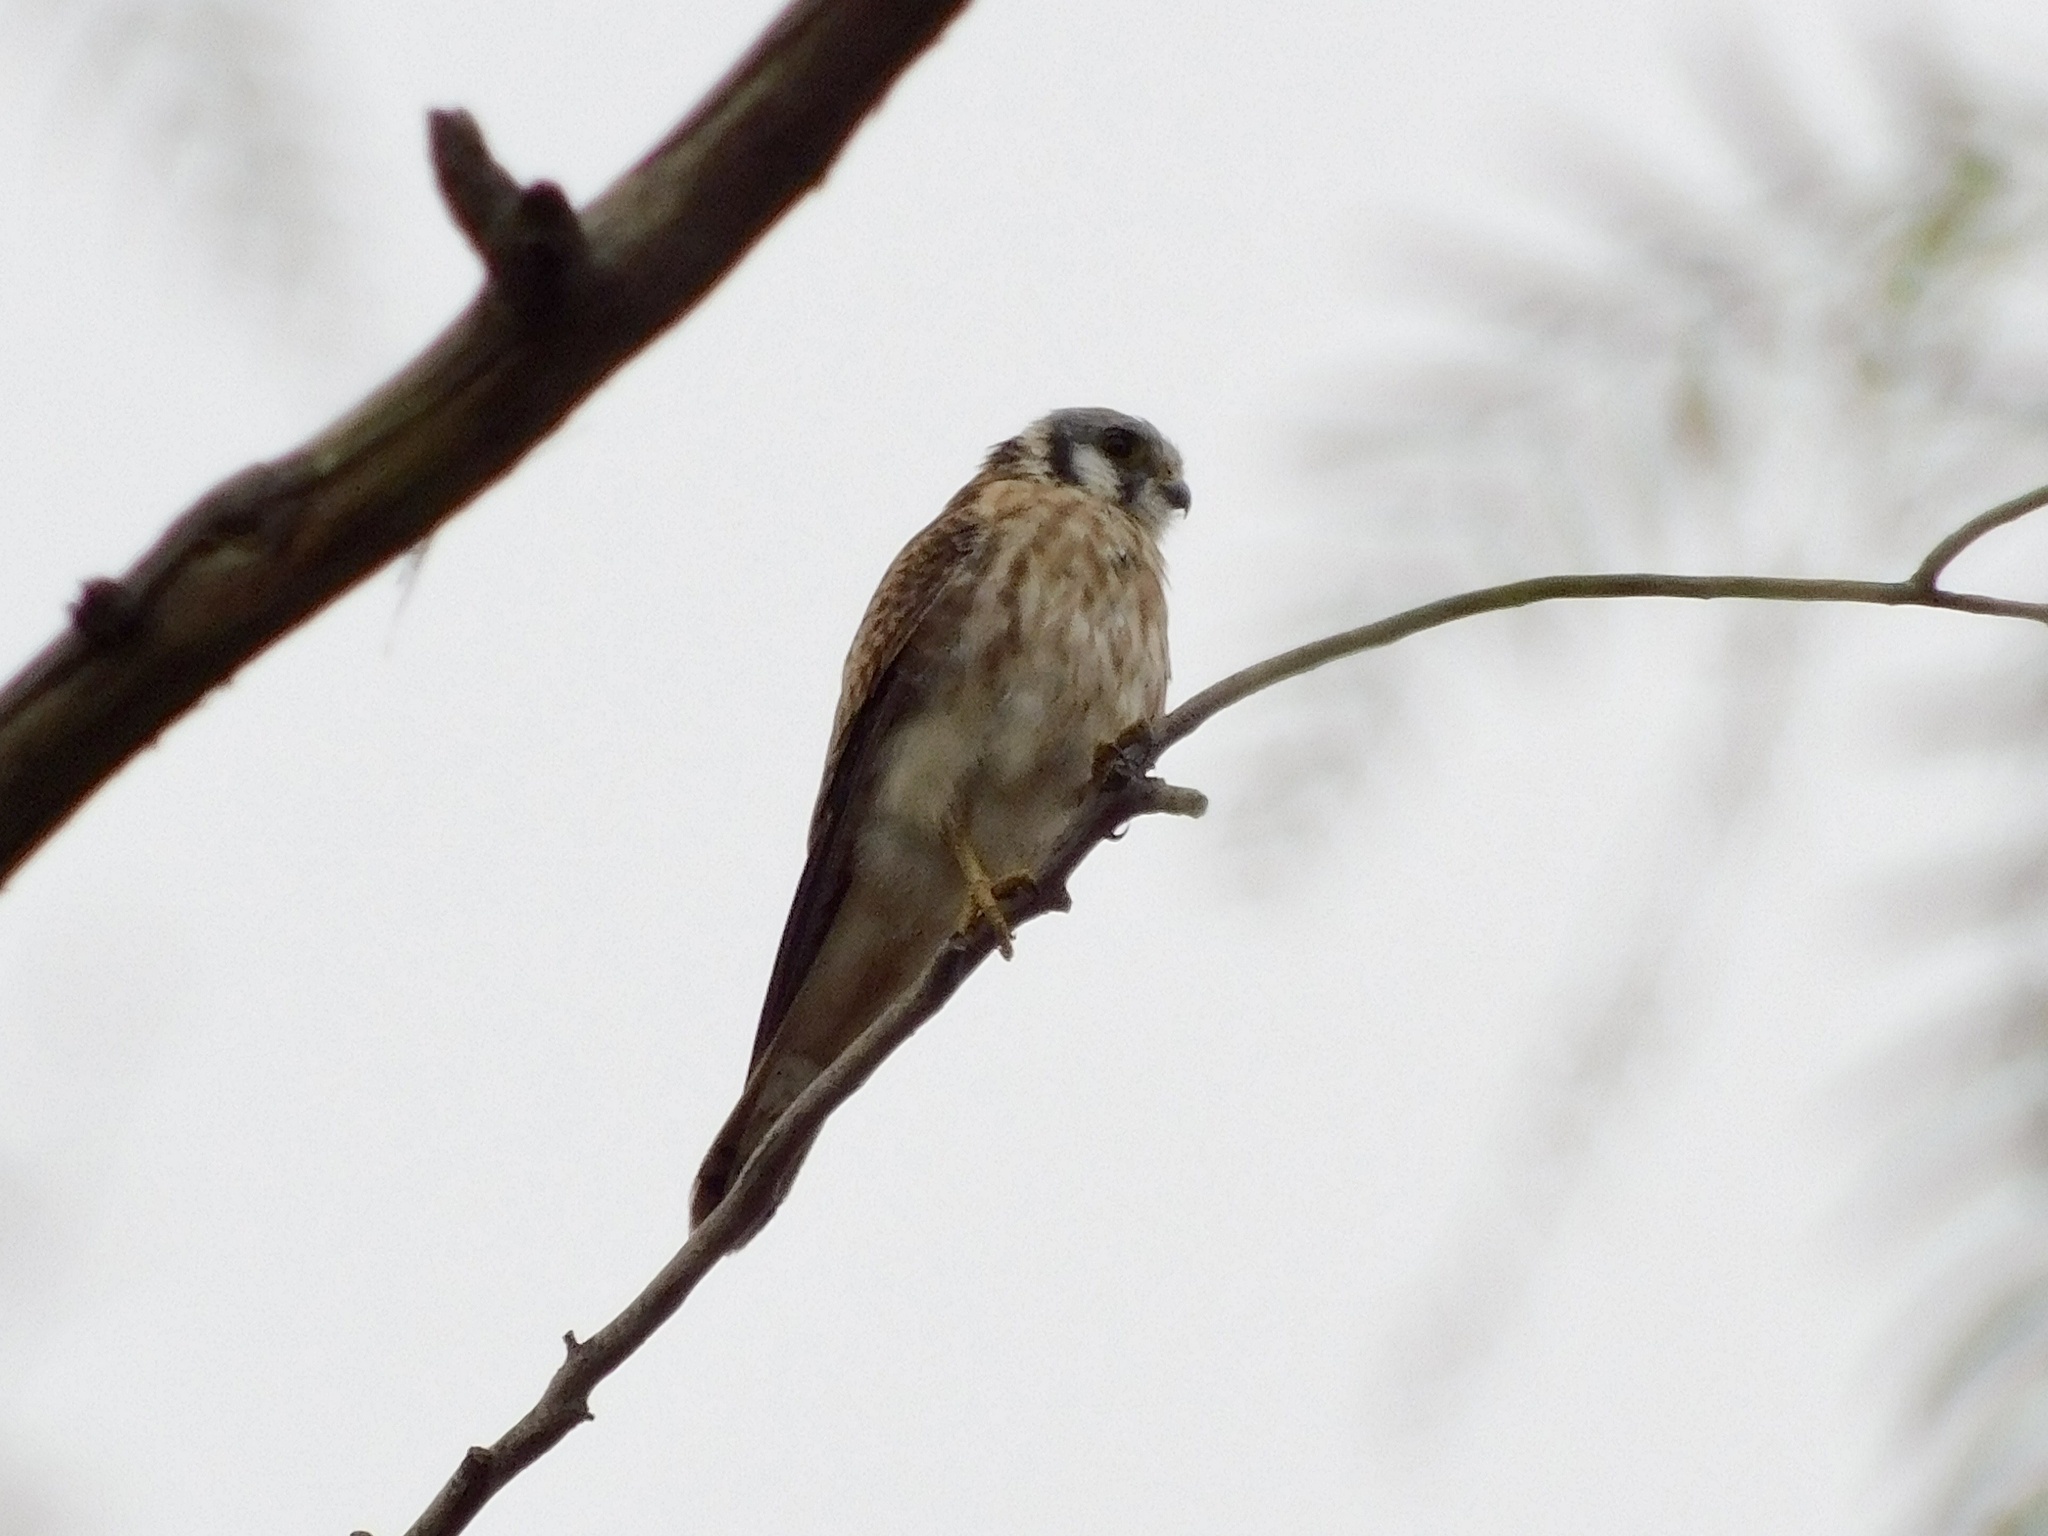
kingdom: Animalia
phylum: Chordata
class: Aves
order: Falconiformes
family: Falconidae
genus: Falco
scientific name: Falco sparverius
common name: American kestrel
